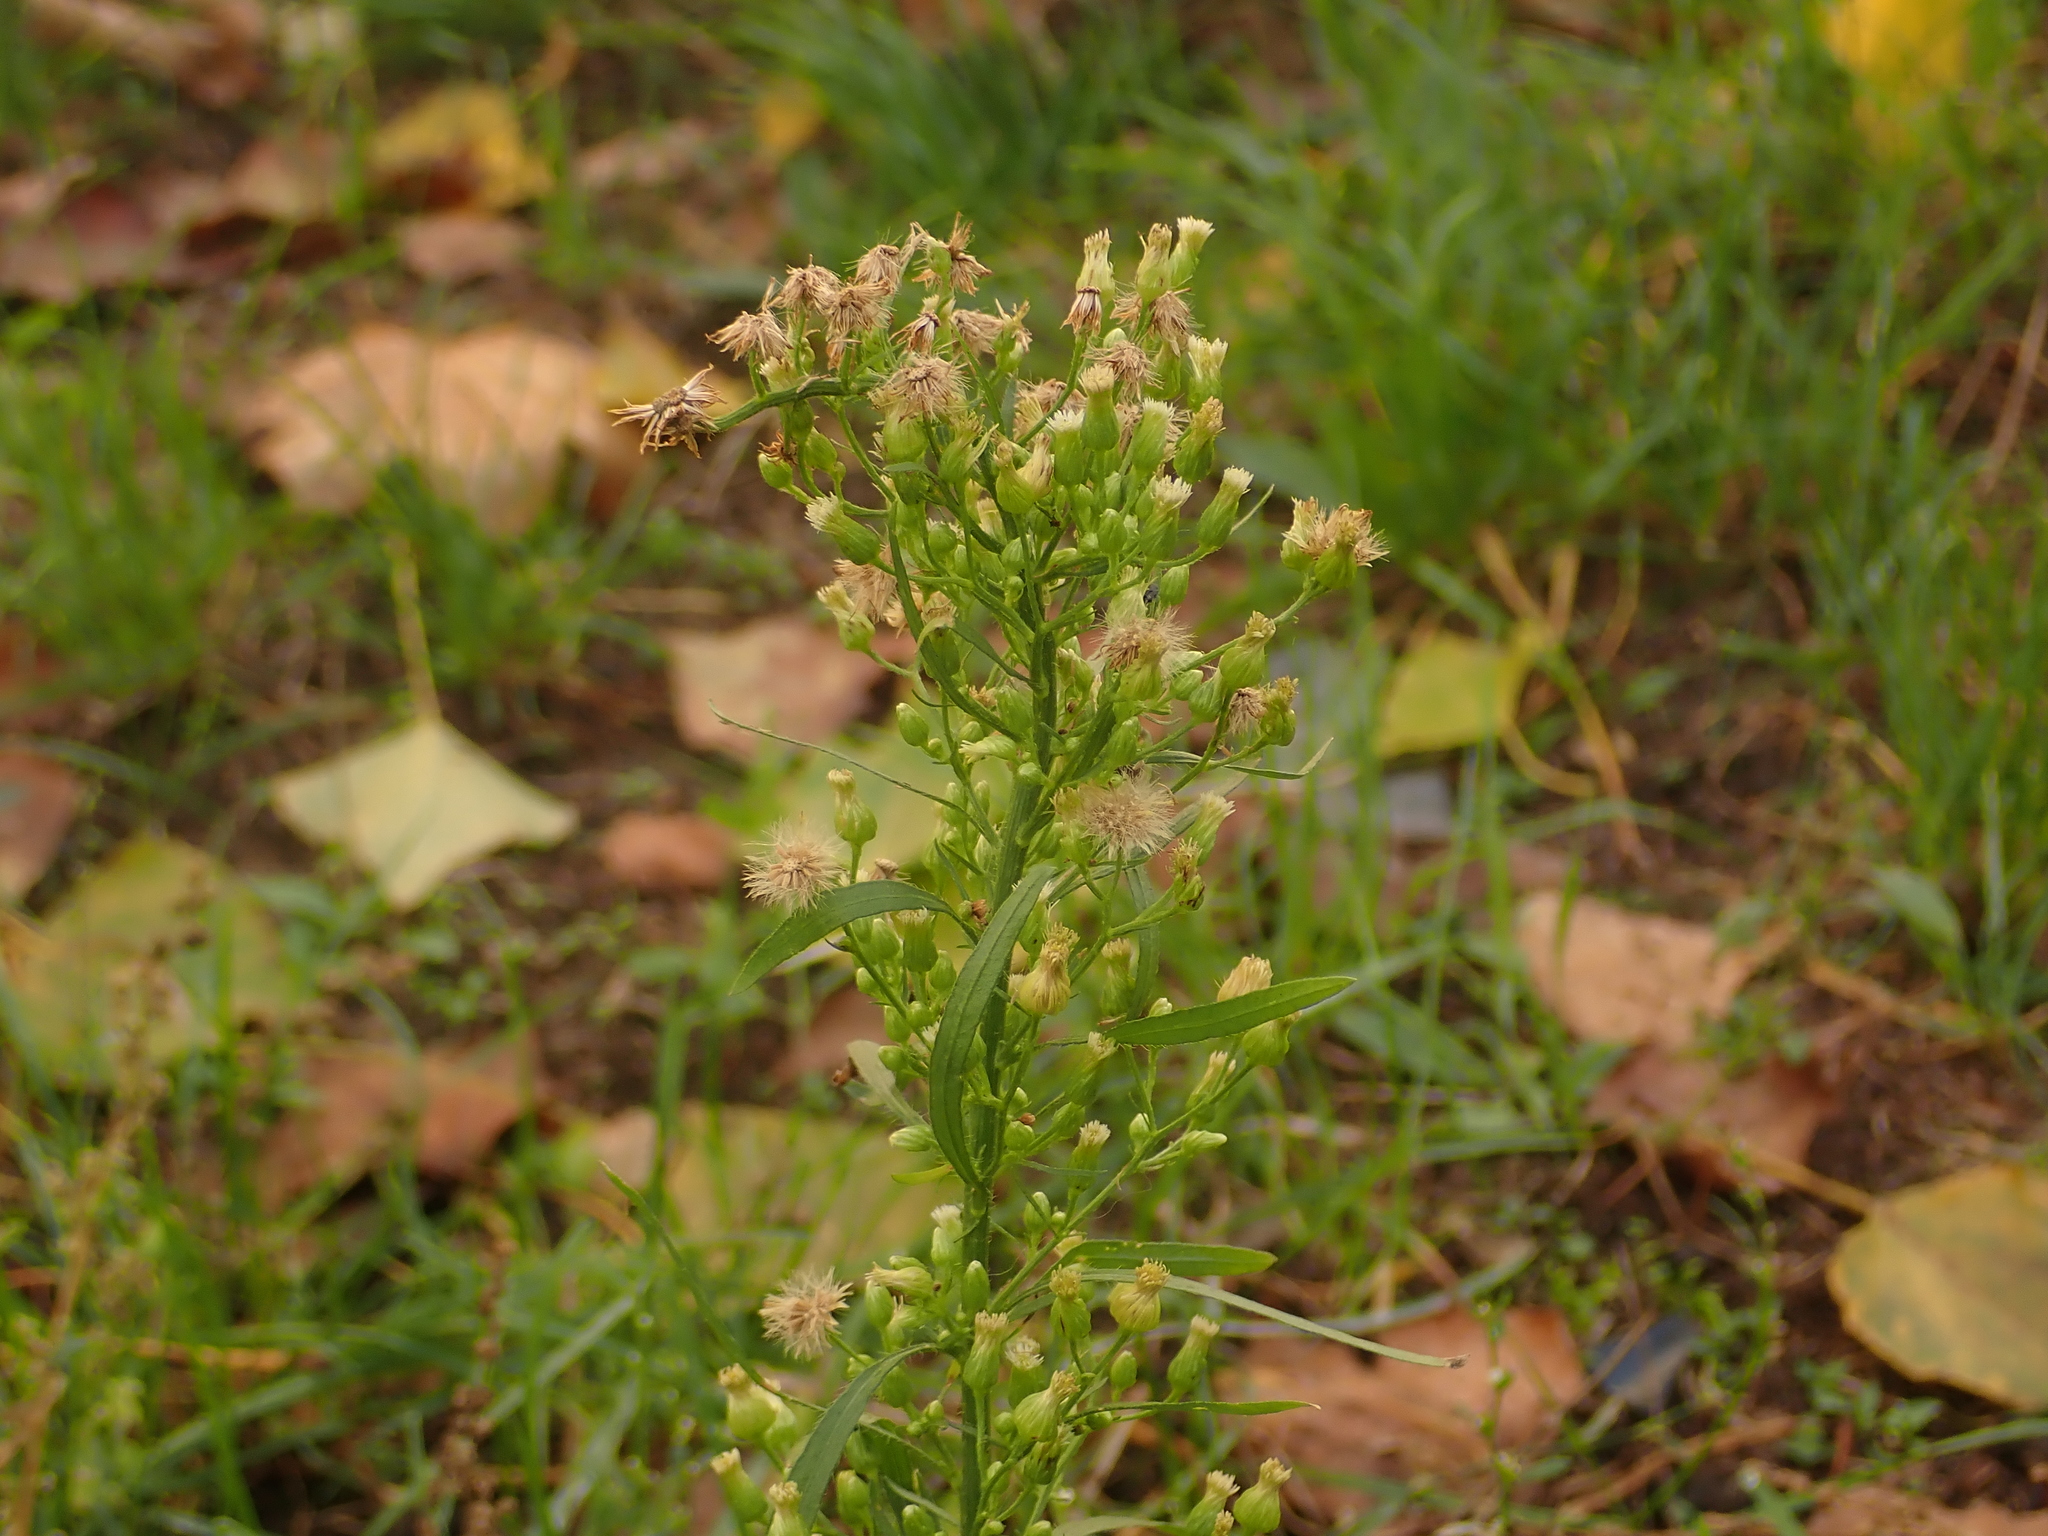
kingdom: Plantae
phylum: Tracheophyta
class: Magnoliopsida
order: Asterales
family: Asteraceae
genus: Erigeron
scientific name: Erigeron canadensis
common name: Canadian fleabane
